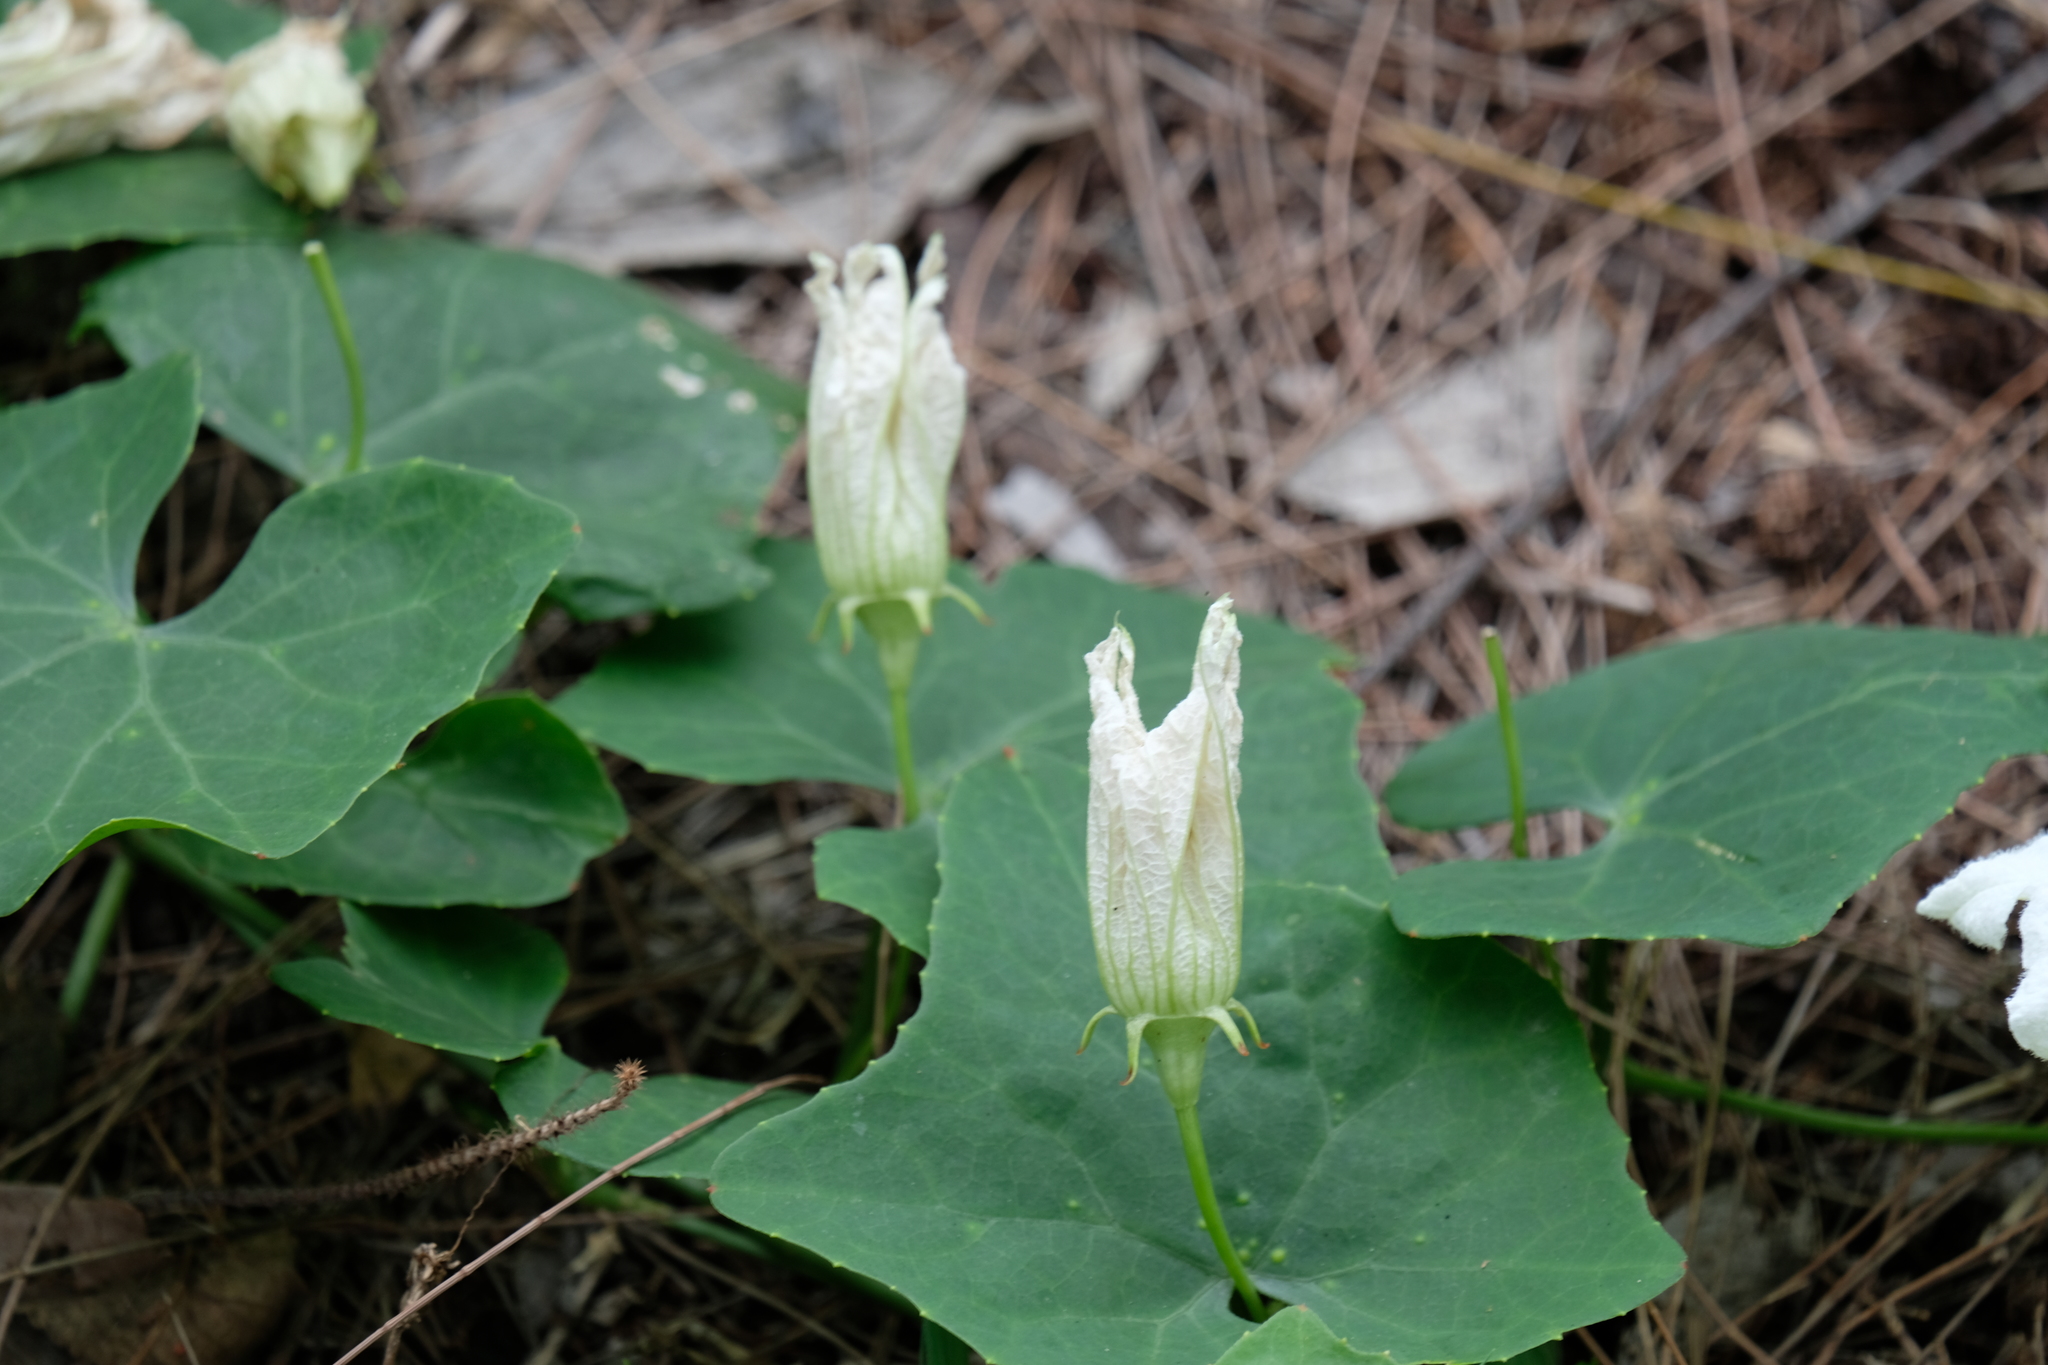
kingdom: Plantae
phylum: Tracheophyta
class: Magnoliopsida
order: Cucurbitales
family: Cucurbitaceae
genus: Coccinia
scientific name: Coccinia grandis
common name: Ivy gourd
